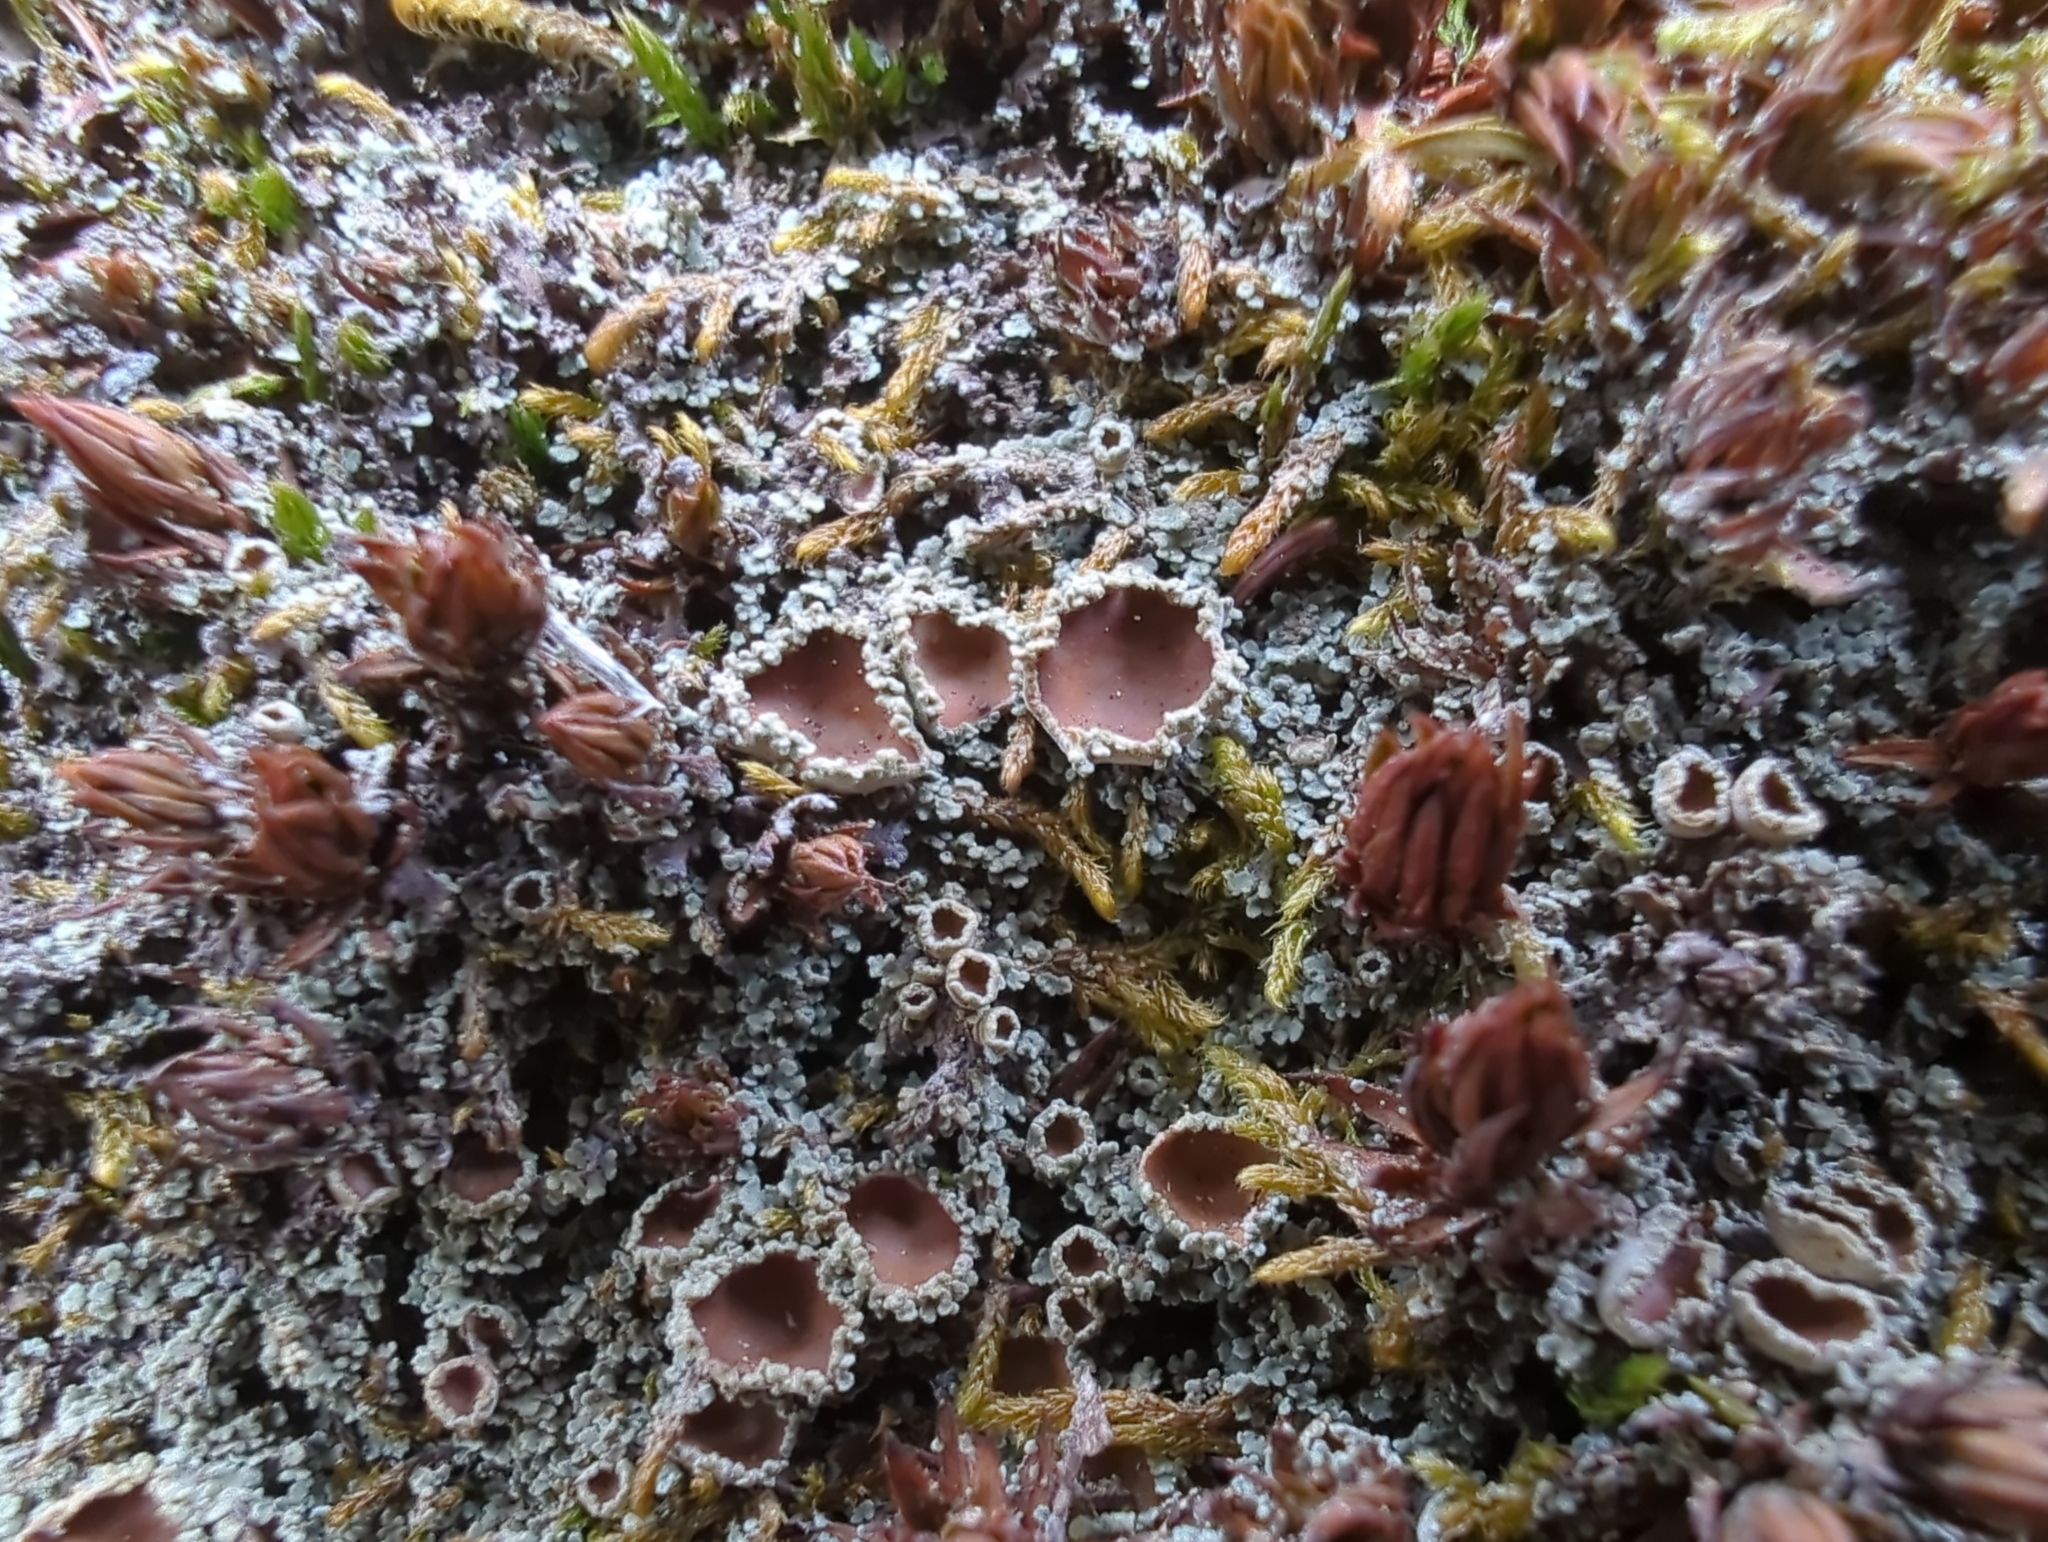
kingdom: Fungi
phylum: Ascomycota
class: Lecanoromycetes
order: Peltigerales
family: Pannariaceae
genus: Psoroma
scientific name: Psoroma hypnorum
